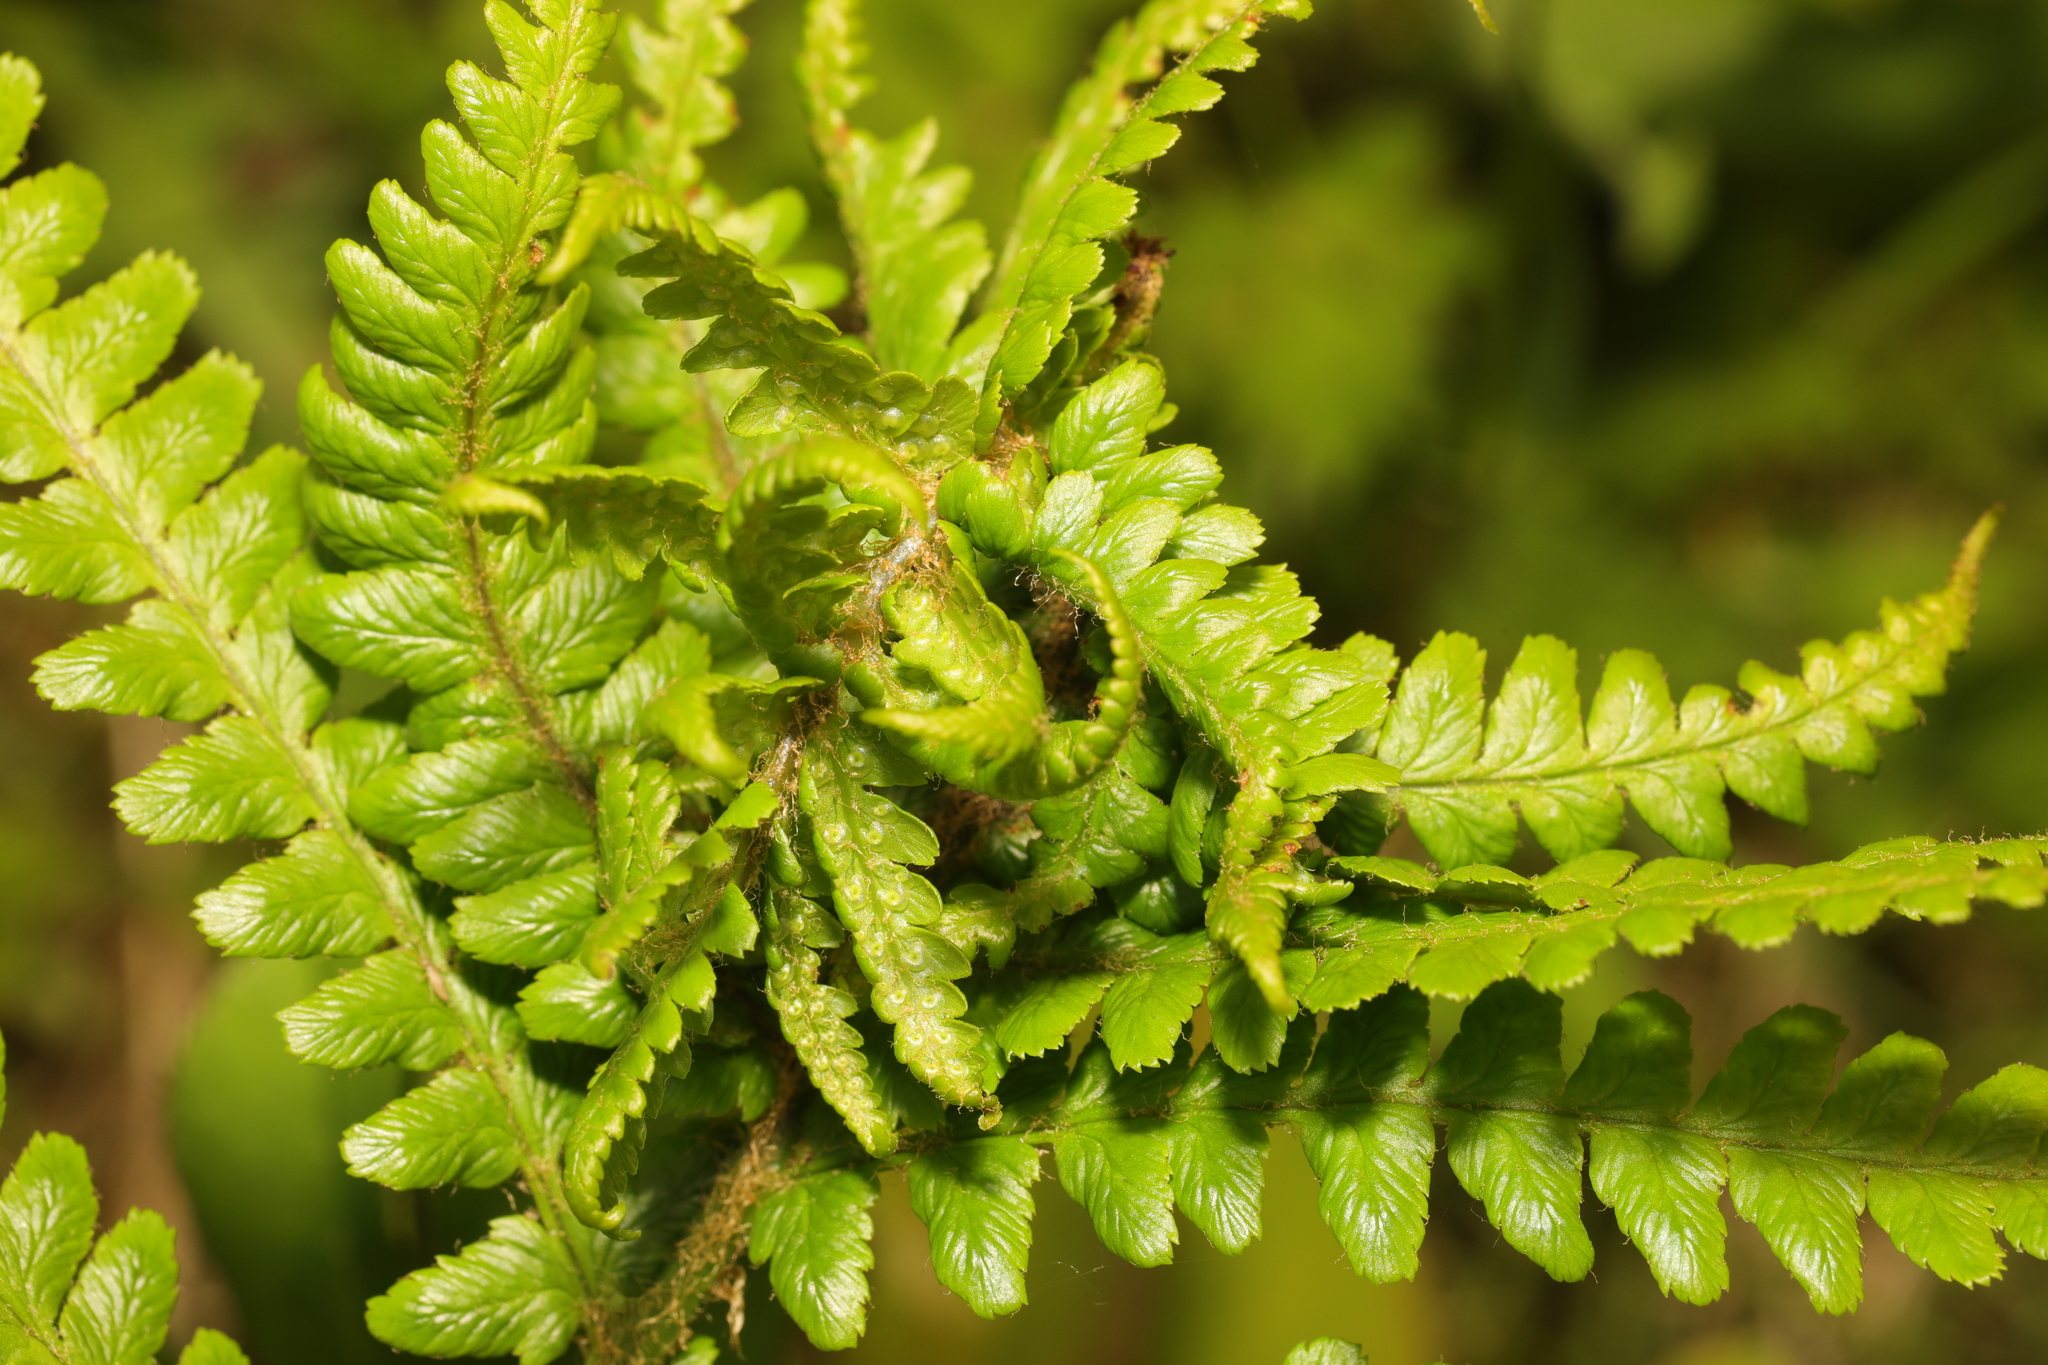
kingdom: Animalia
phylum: Arthropoda
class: Insecta
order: Diptera
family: Anthomyiidae
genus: Chirosia
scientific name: Chirosia betuleti
